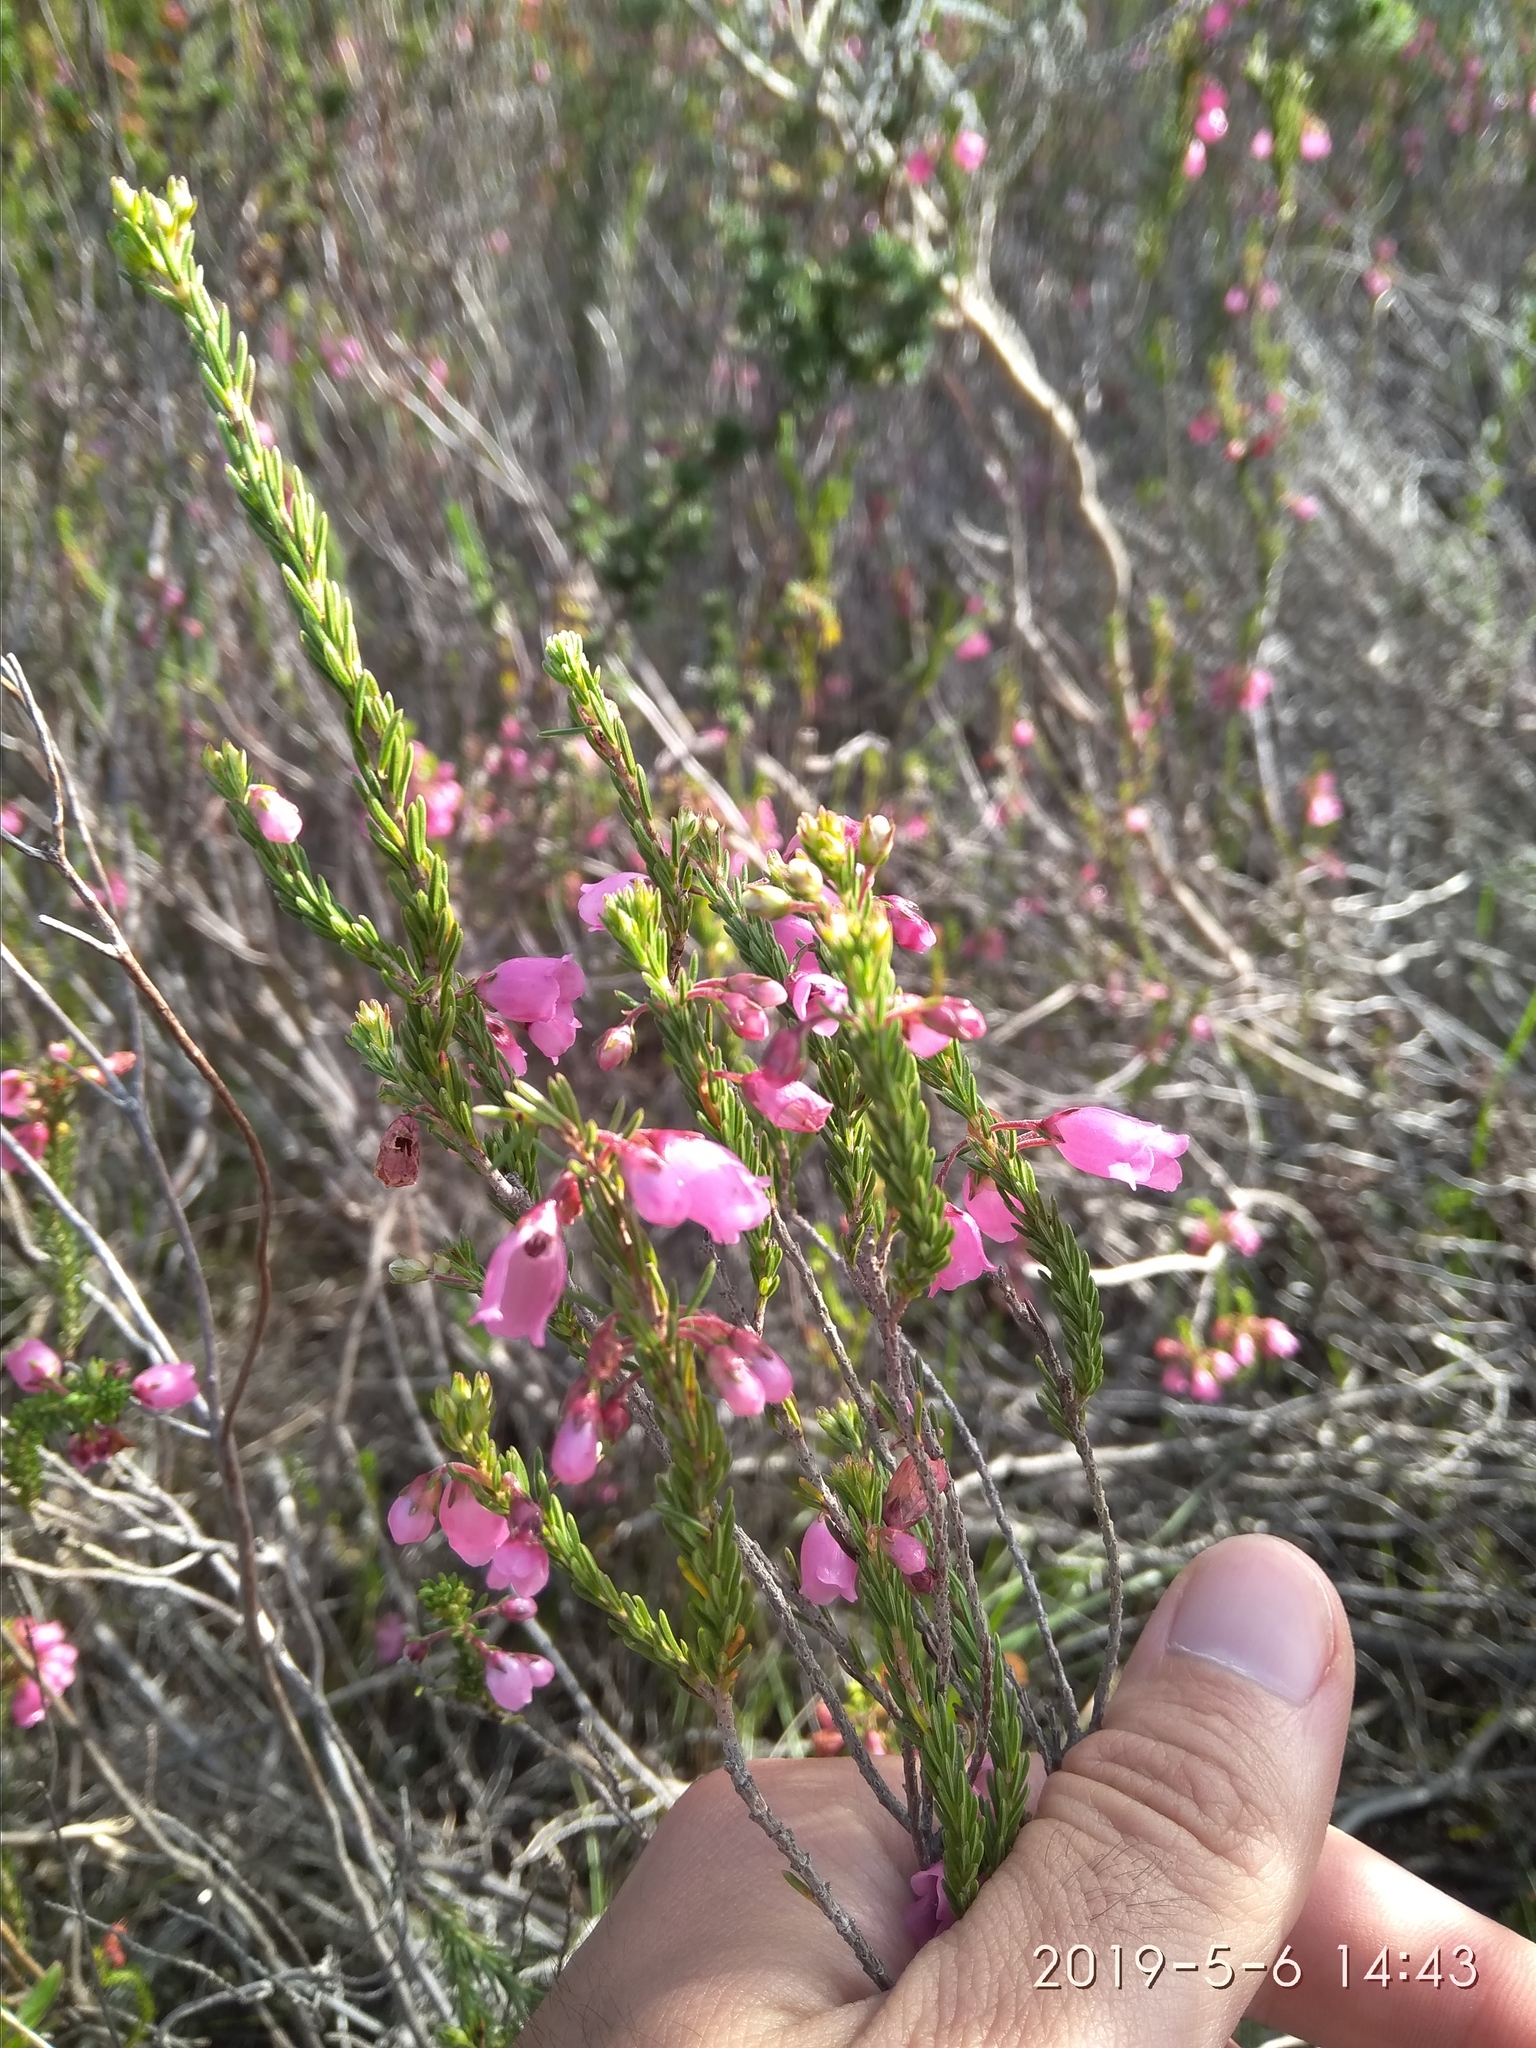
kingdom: Plantae
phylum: Tracheophyta
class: Magnoliopsida
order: Ericales
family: Ericaceae
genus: Erica
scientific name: Erica axilliflora
